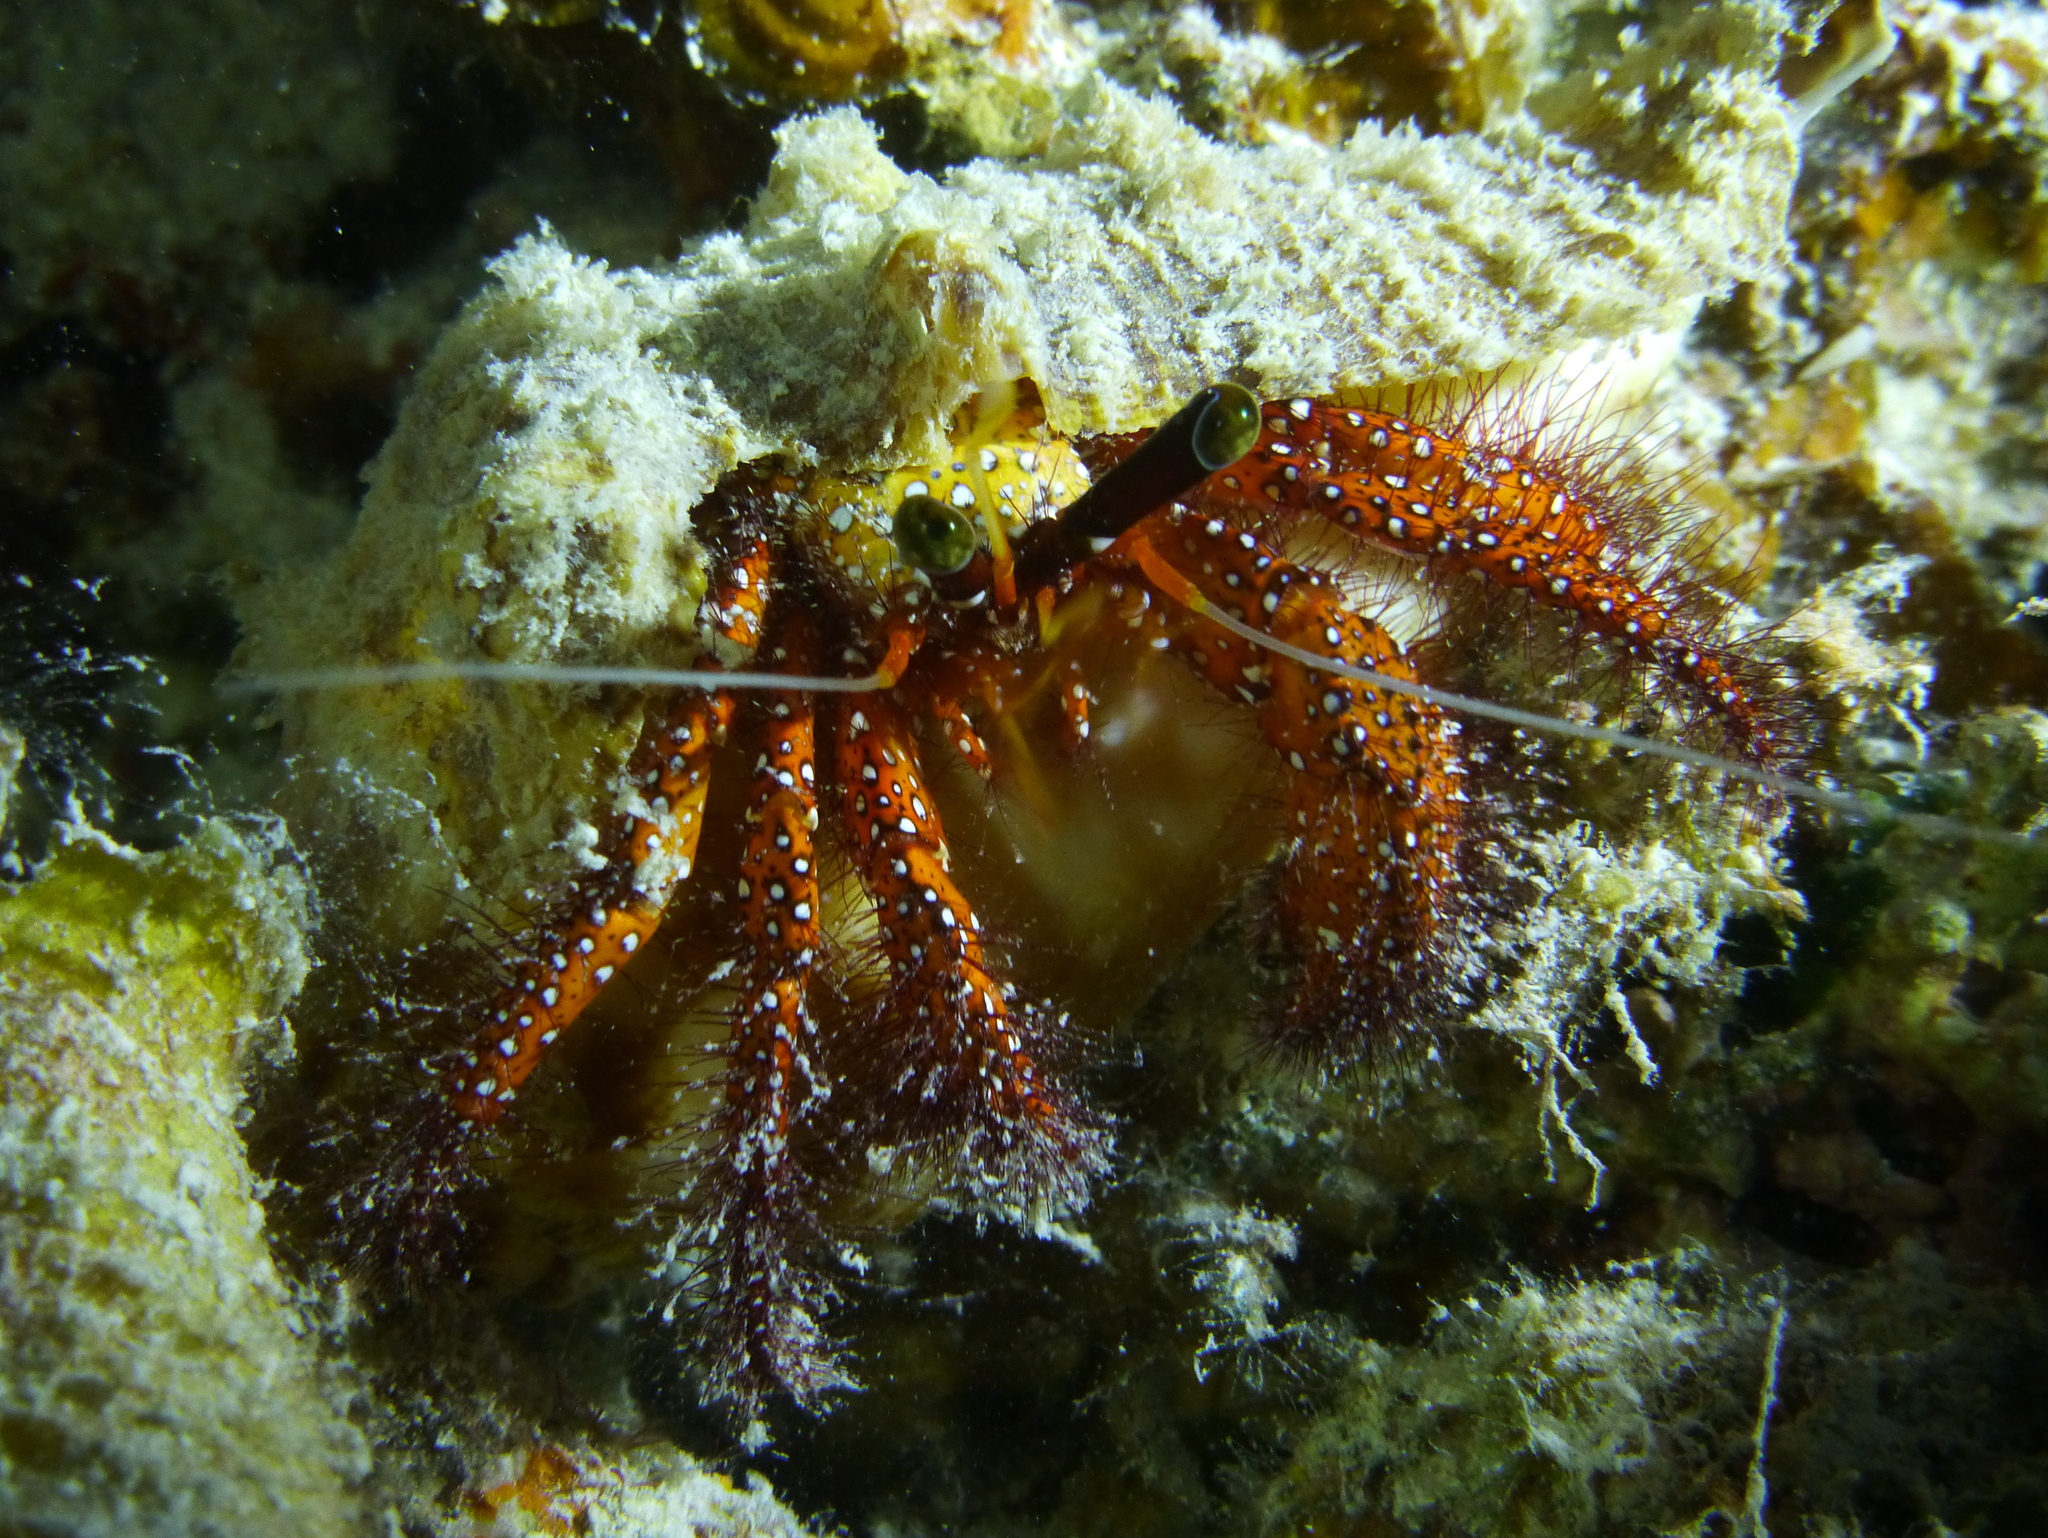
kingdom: Animalia
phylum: Arthropoda
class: Malacostraca
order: Decapoda
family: Diogenidae
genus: Dardanus
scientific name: Dardanus megistos
